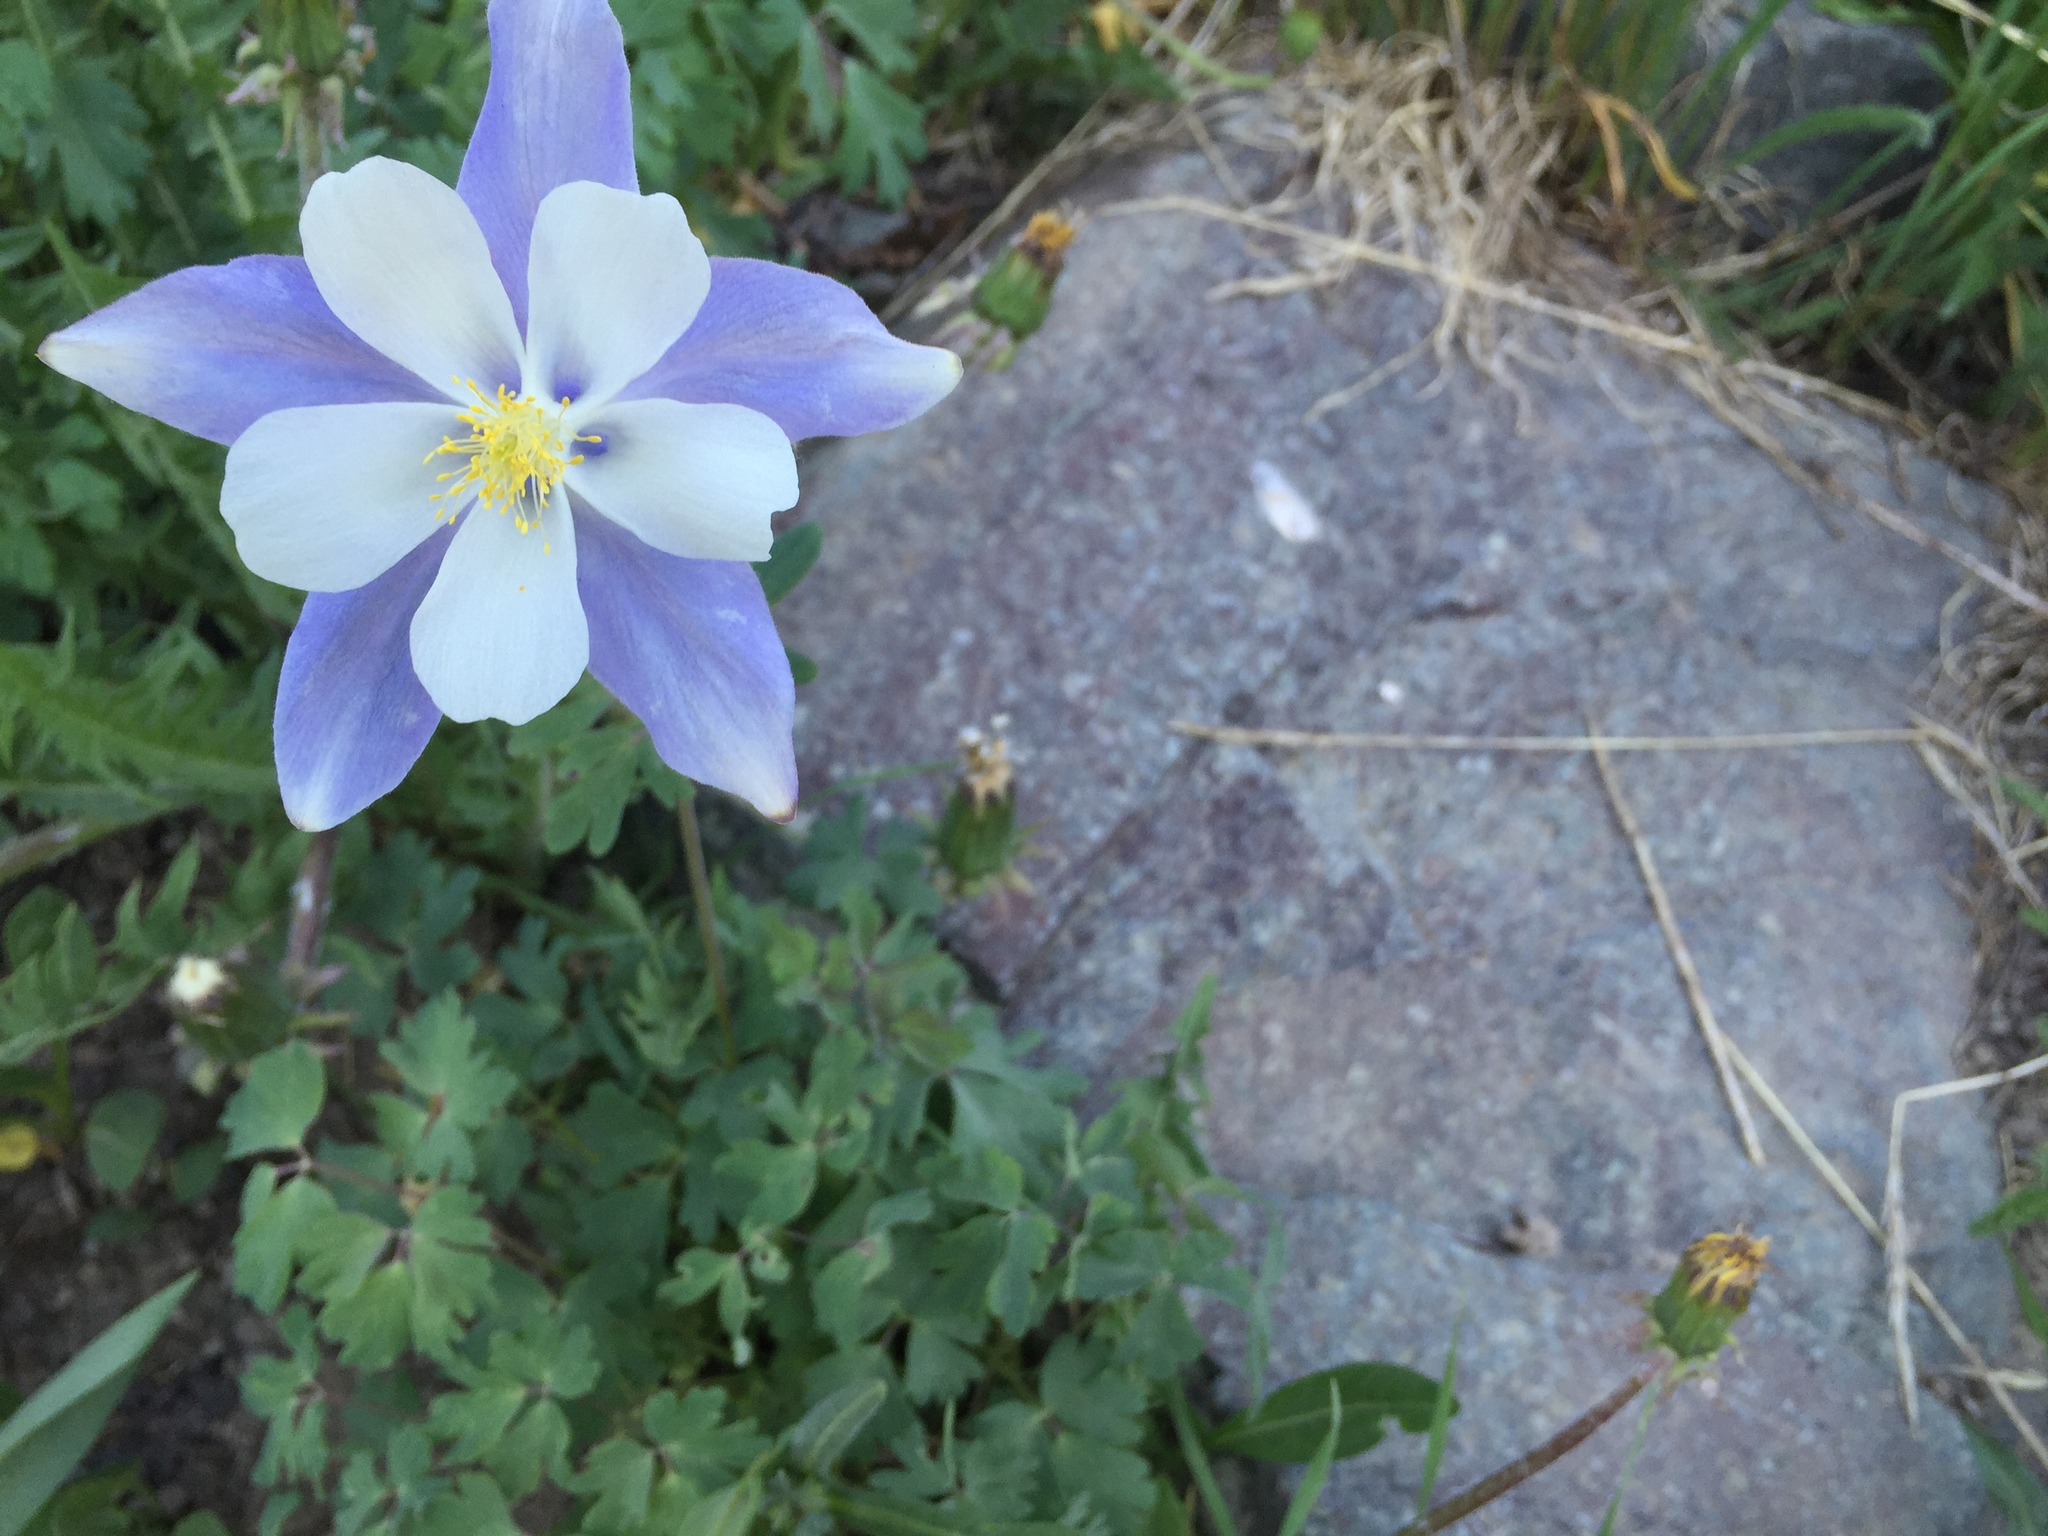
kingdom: Plantae
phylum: Tracheophyta
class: Magnoliopsida
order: Ranunculales
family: Ranunculaceae
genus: Aquilegia
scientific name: Aquilegia coerulea
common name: Rocky mountain columbine
